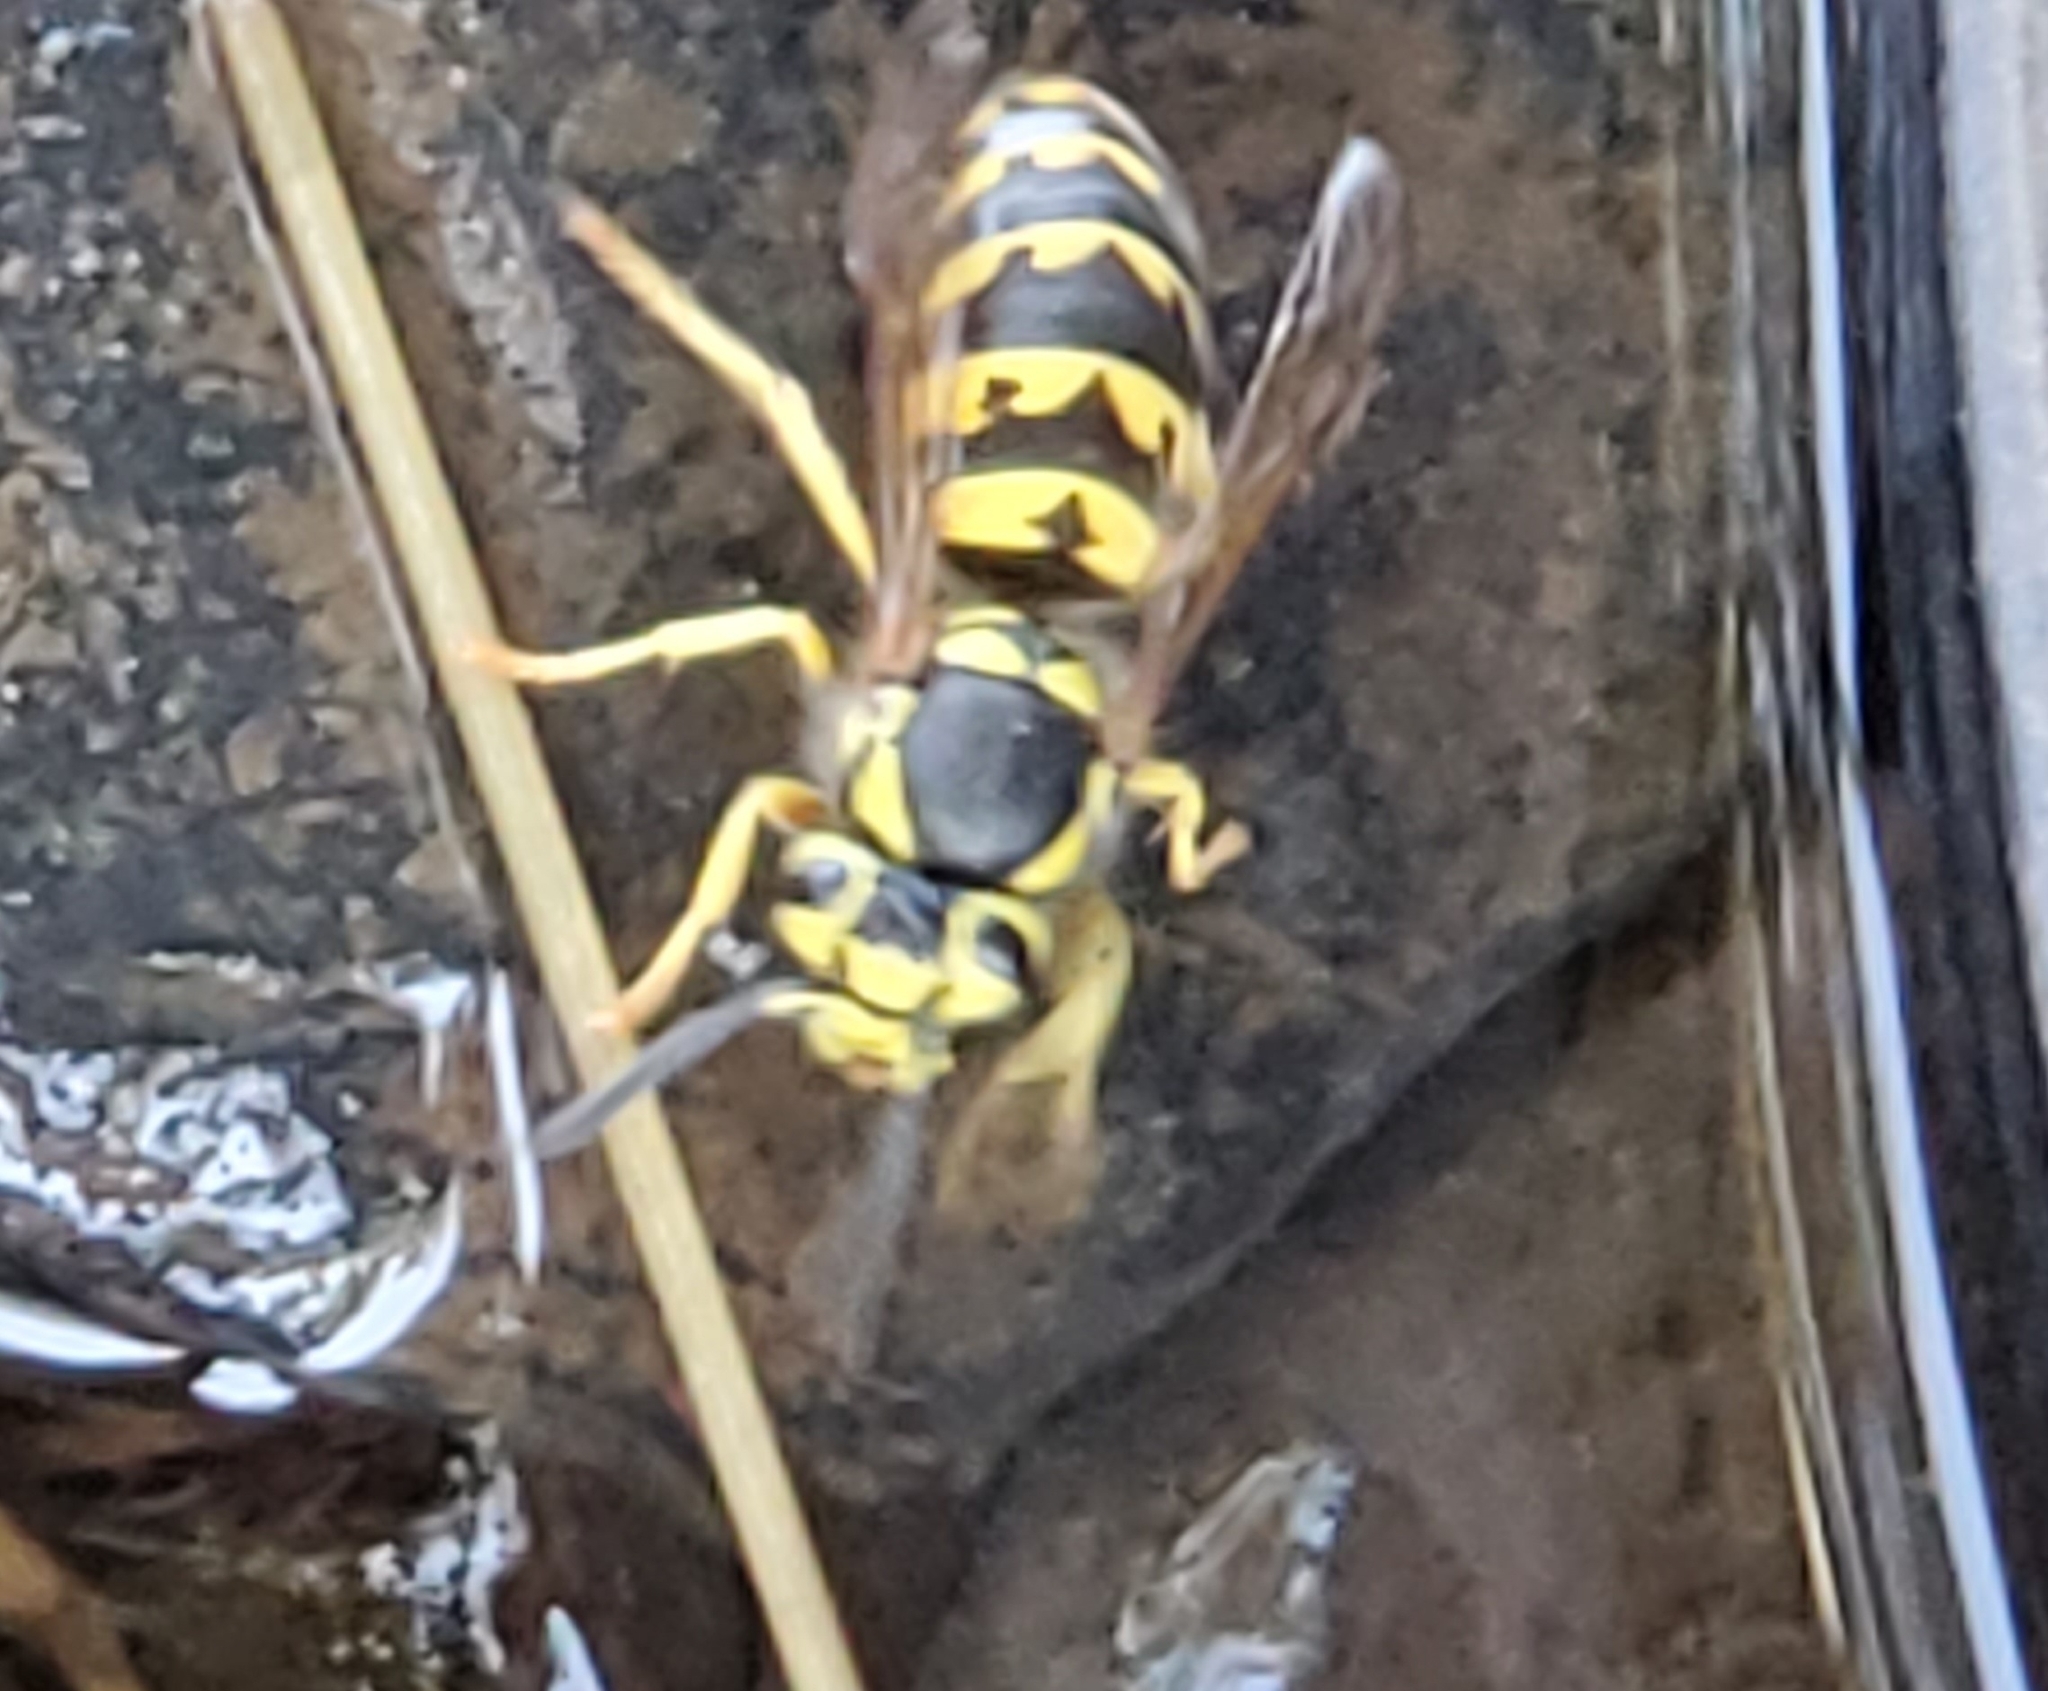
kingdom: Animalia
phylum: Arthropoda
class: Insecta
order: Hymenoptera
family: Vespidae
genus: Vespula
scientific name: Vespula pensylvanica
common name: Western yellowjacket
